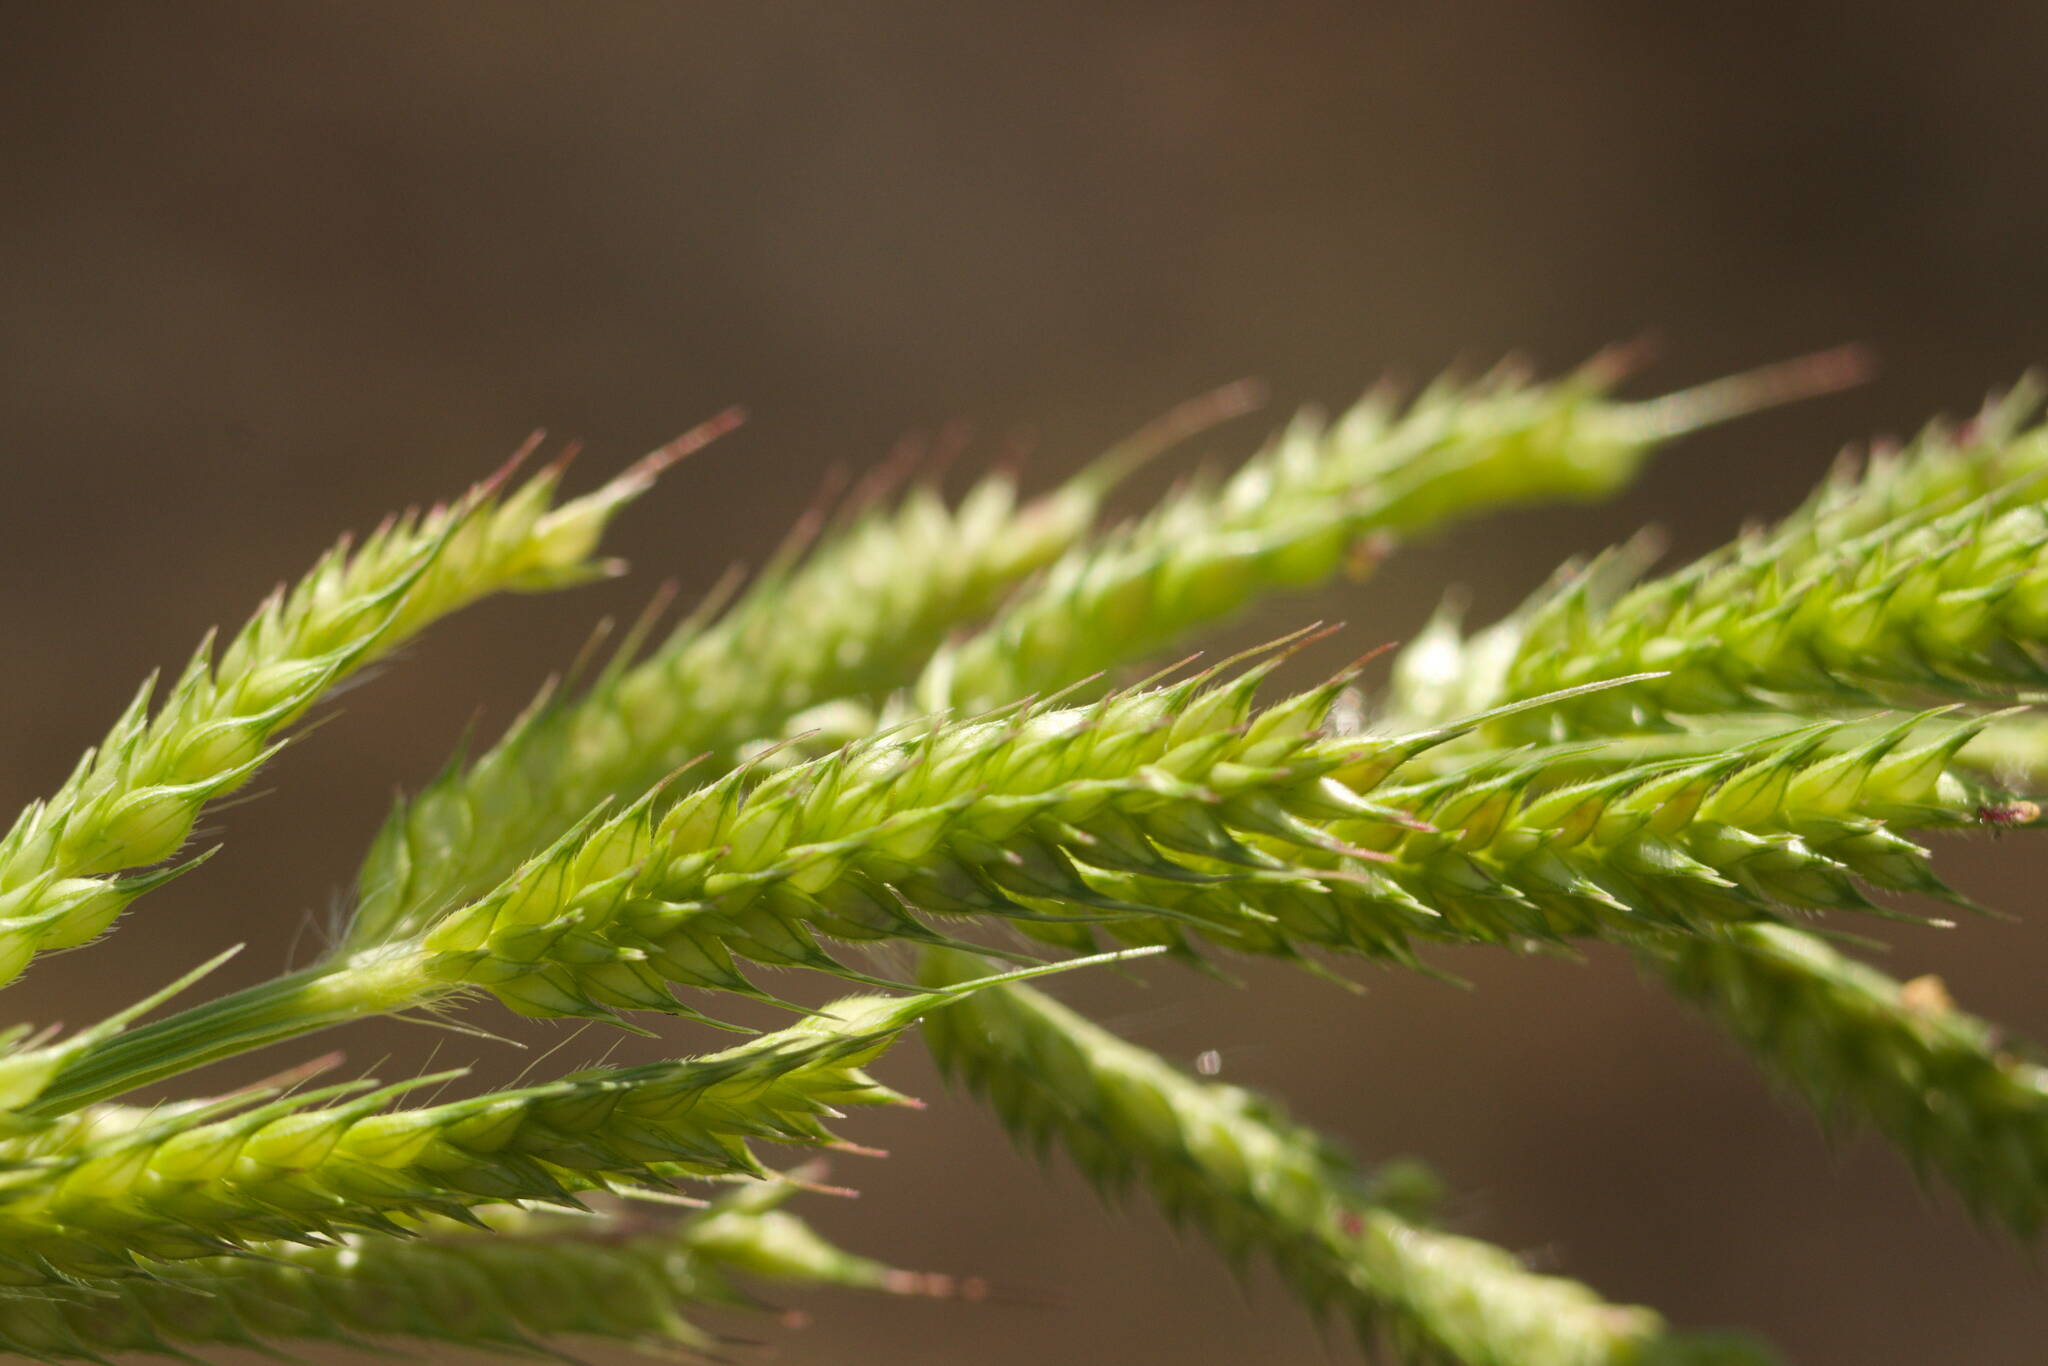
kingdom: Plantae
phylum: Tracheophyta
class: Liliopsida
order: Poales
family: Poaceae
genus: Echinochloa
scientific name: Echinochloa crus-galli
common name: Cockspur
